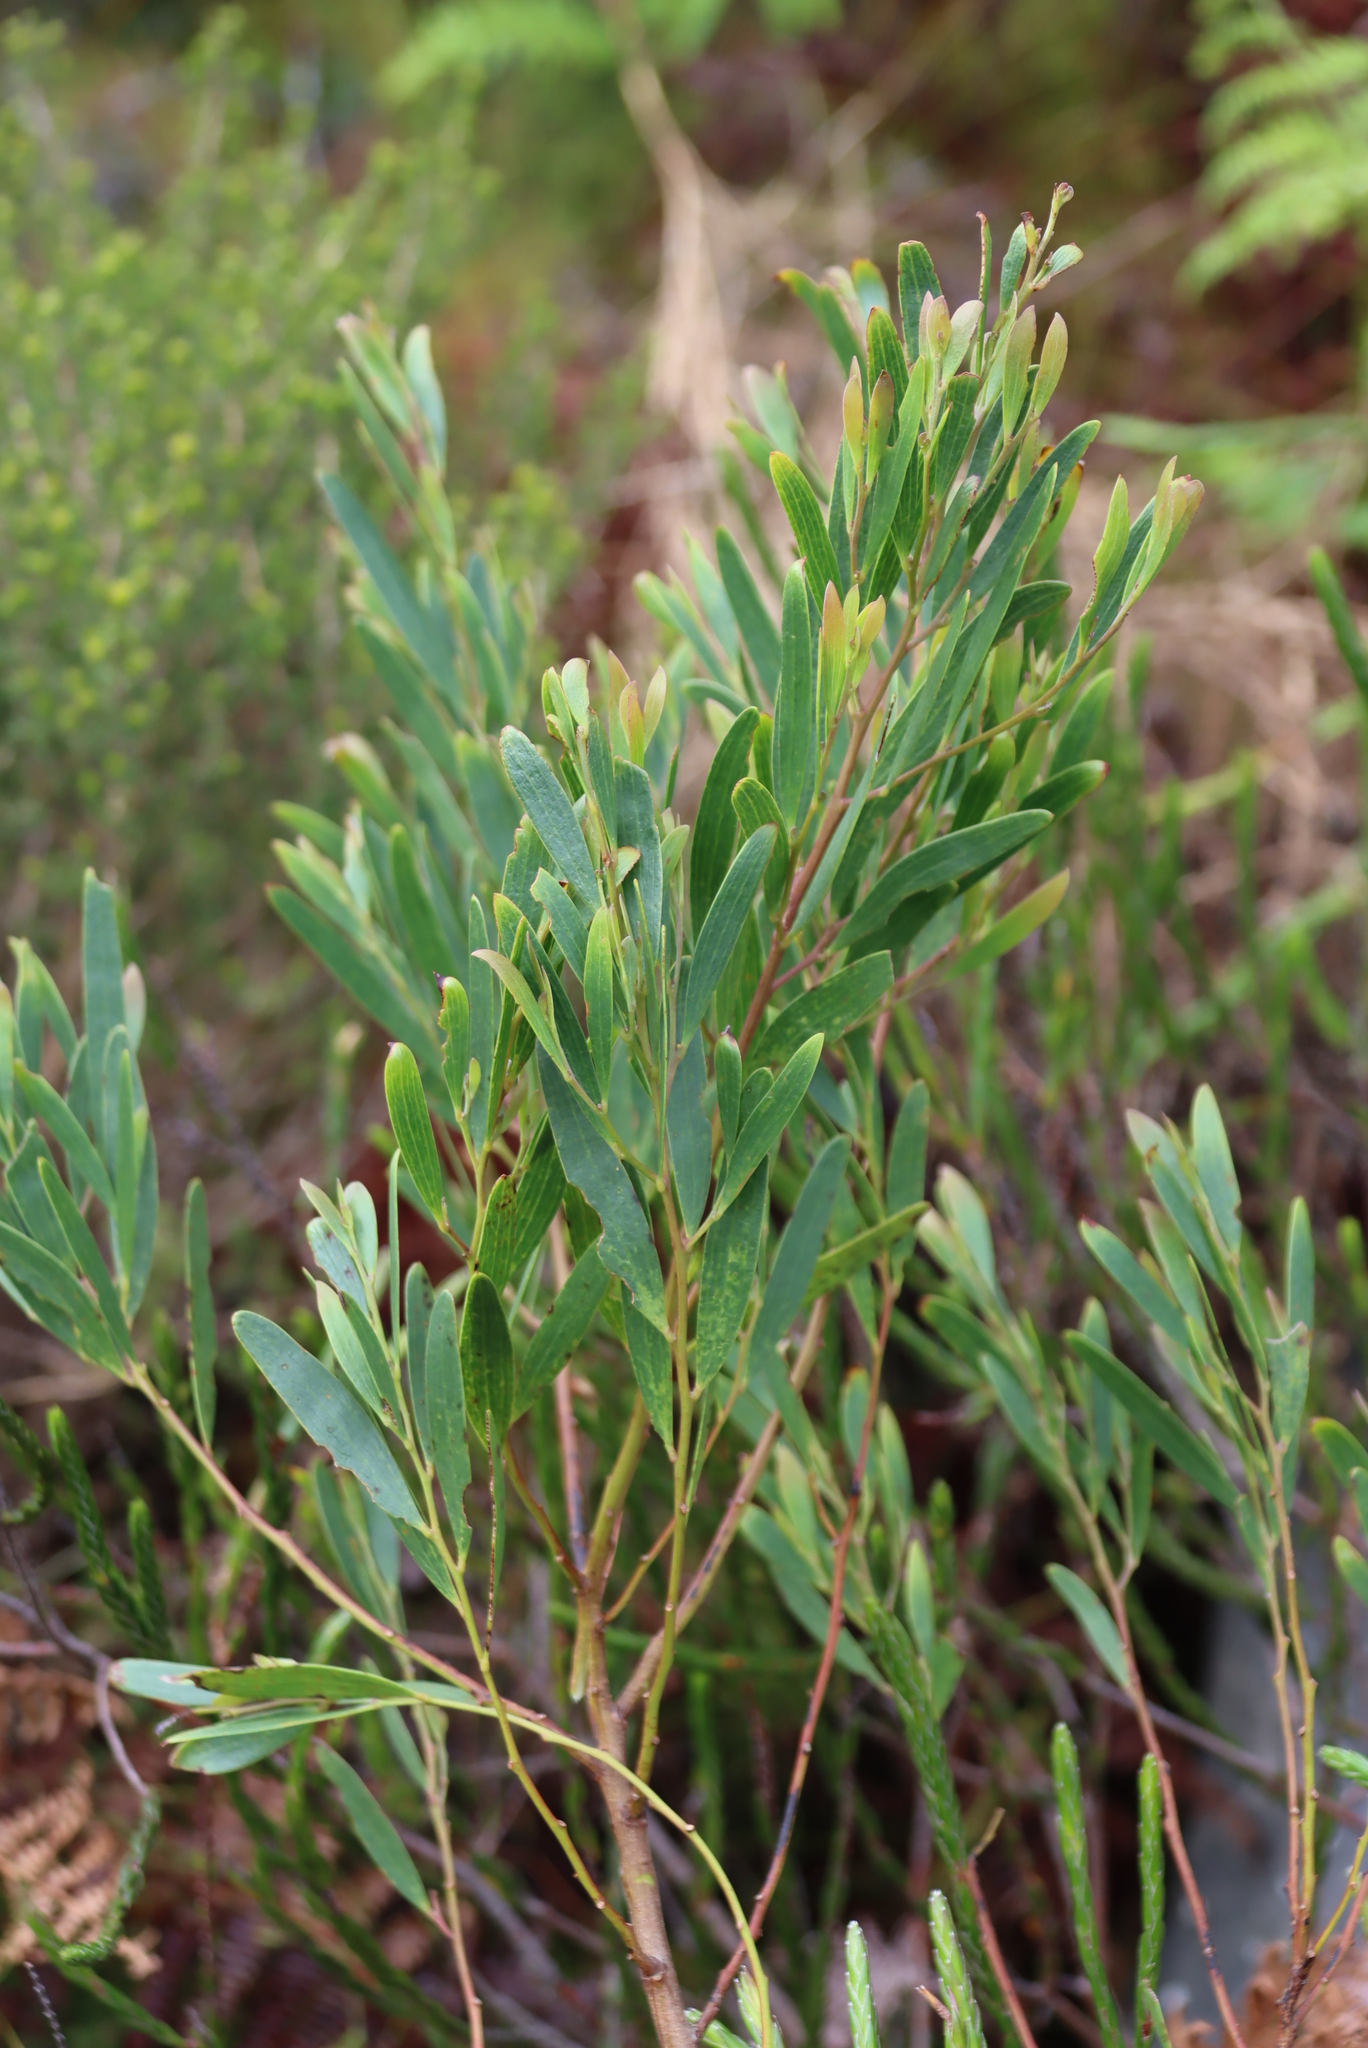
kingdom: Plantae
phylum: Tracheophyta
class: Magnoliopsida
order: Fabales
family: Fabaceae
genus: Acacia
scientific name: Acacia cyclops
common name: Coastal wattle
